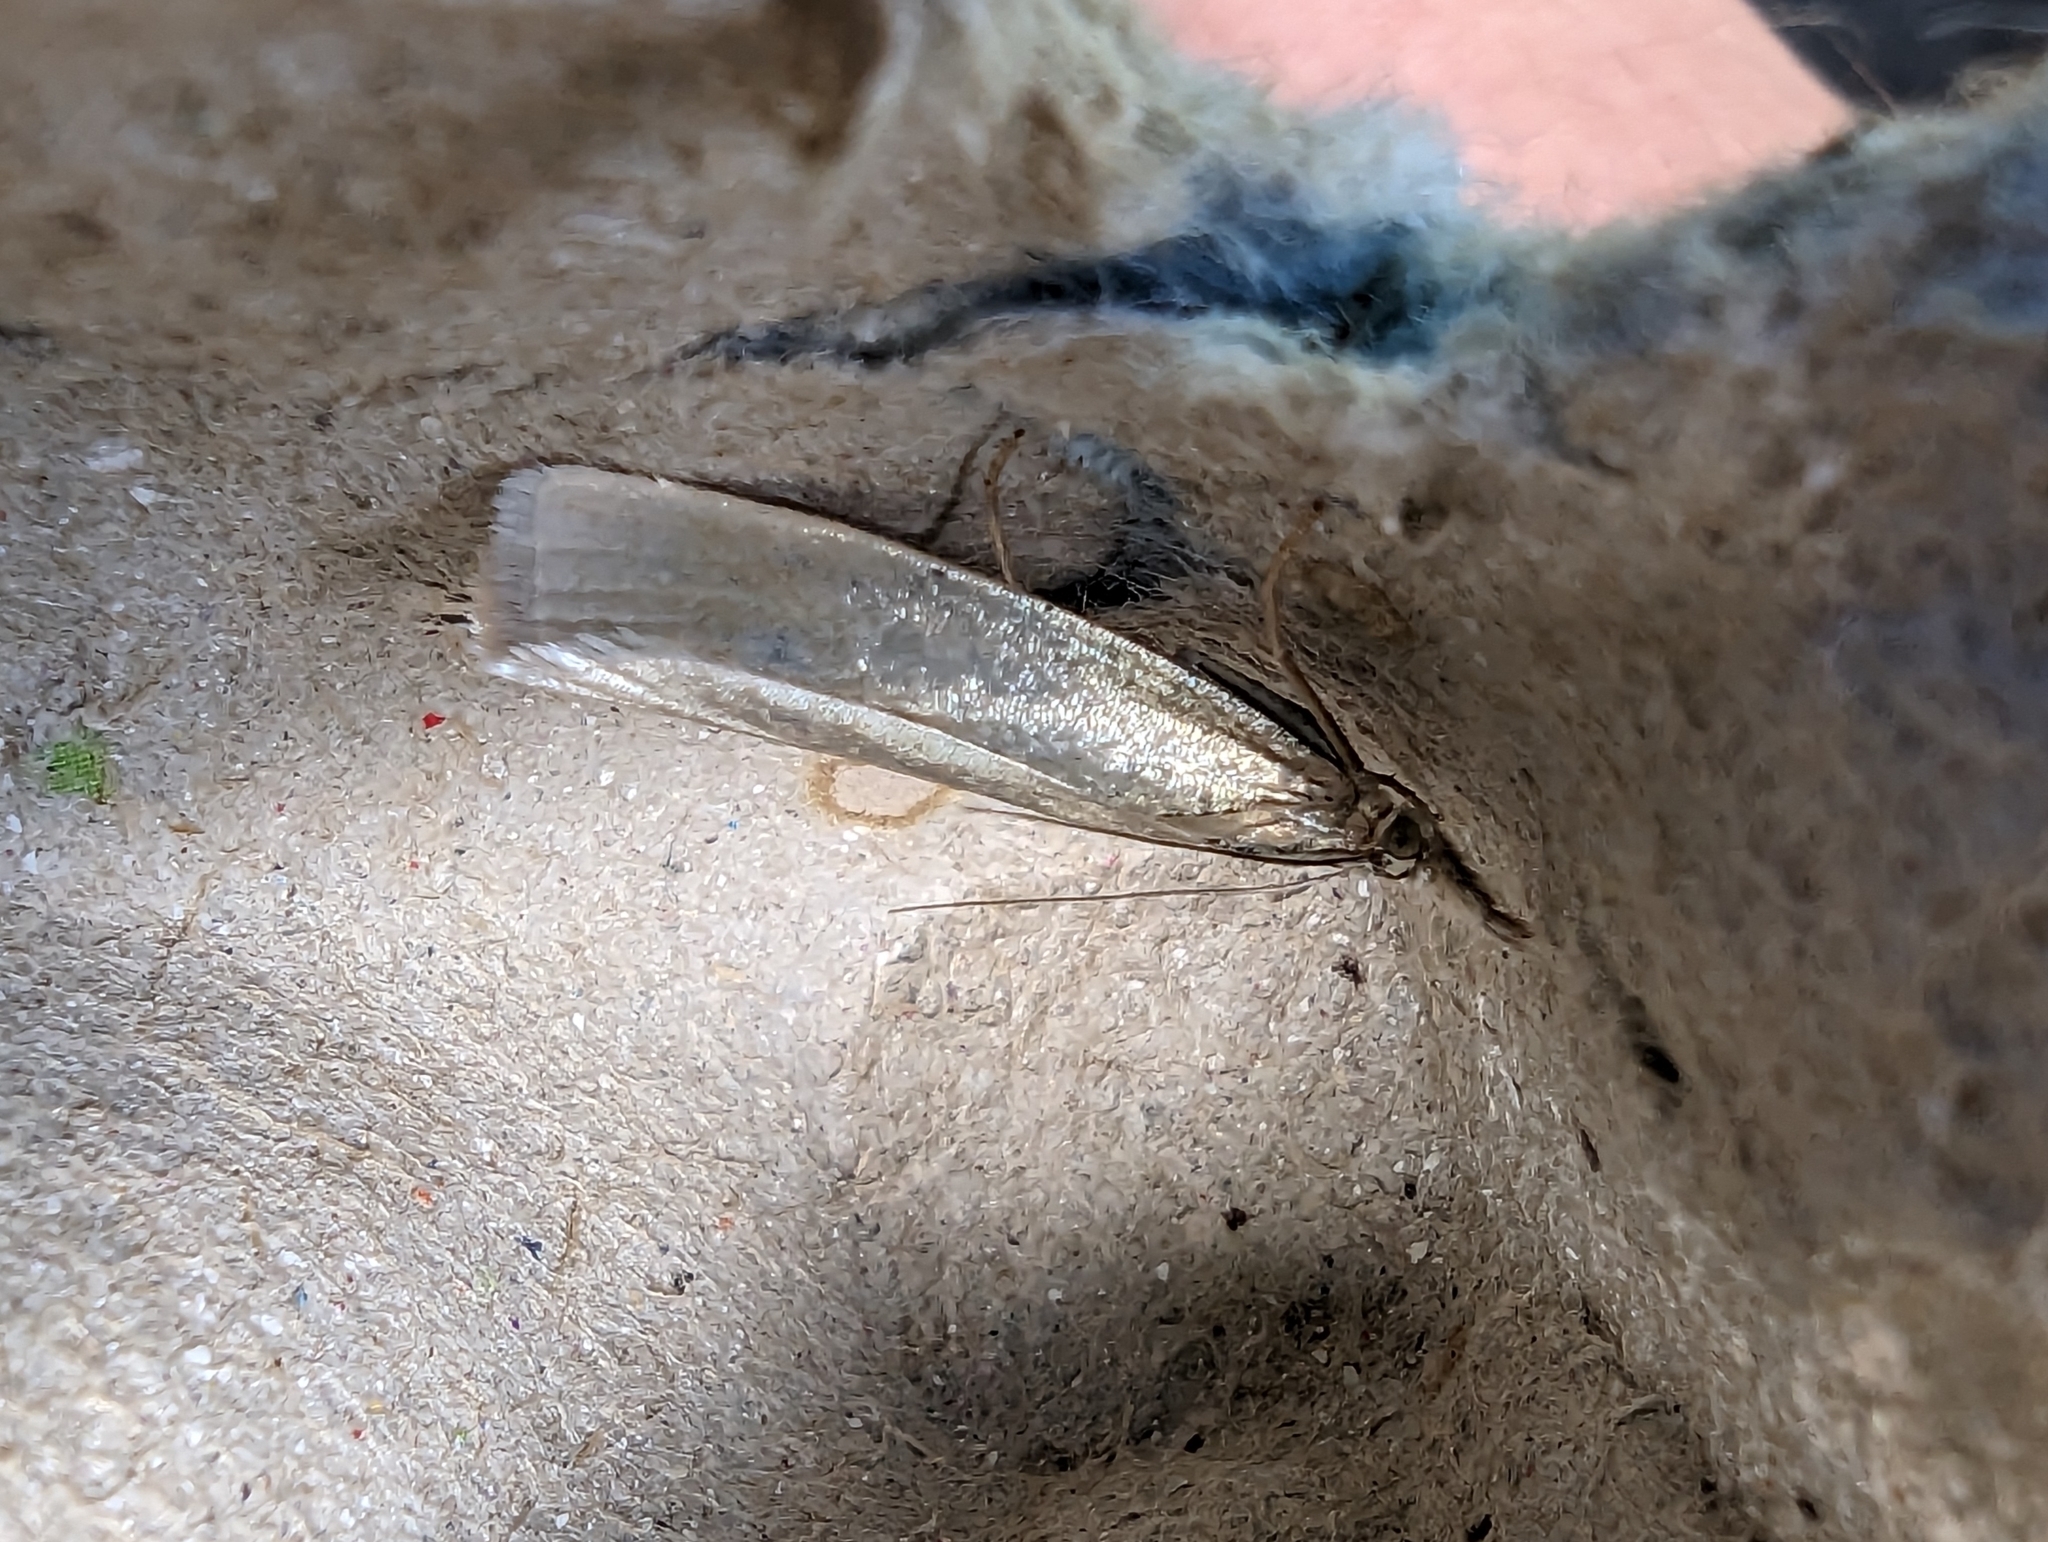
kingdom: Animalia
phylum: Arthropoda
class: Insecta
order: Lepidoptera
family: Crambidae
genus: Crambus
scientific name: Crambus perlellus
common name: Yellow satin veneer
